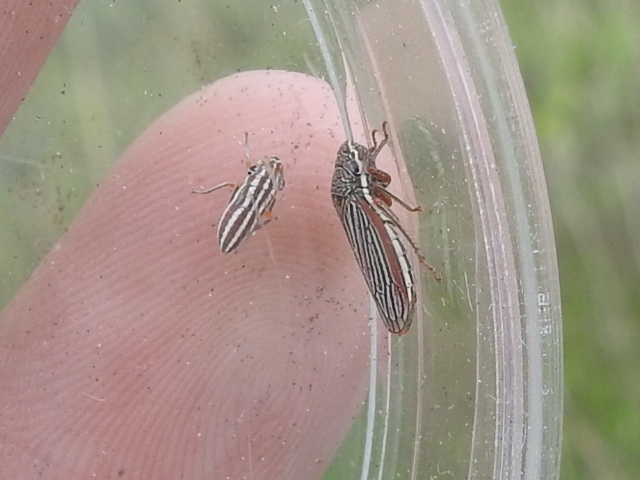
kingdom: Animalia
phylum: Arthropoda
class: Insecta
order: Hemiptera
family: Cicadellidae
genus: Cuerna
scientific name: Cuerna costalis
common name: Lateral-lined sharpshooter
